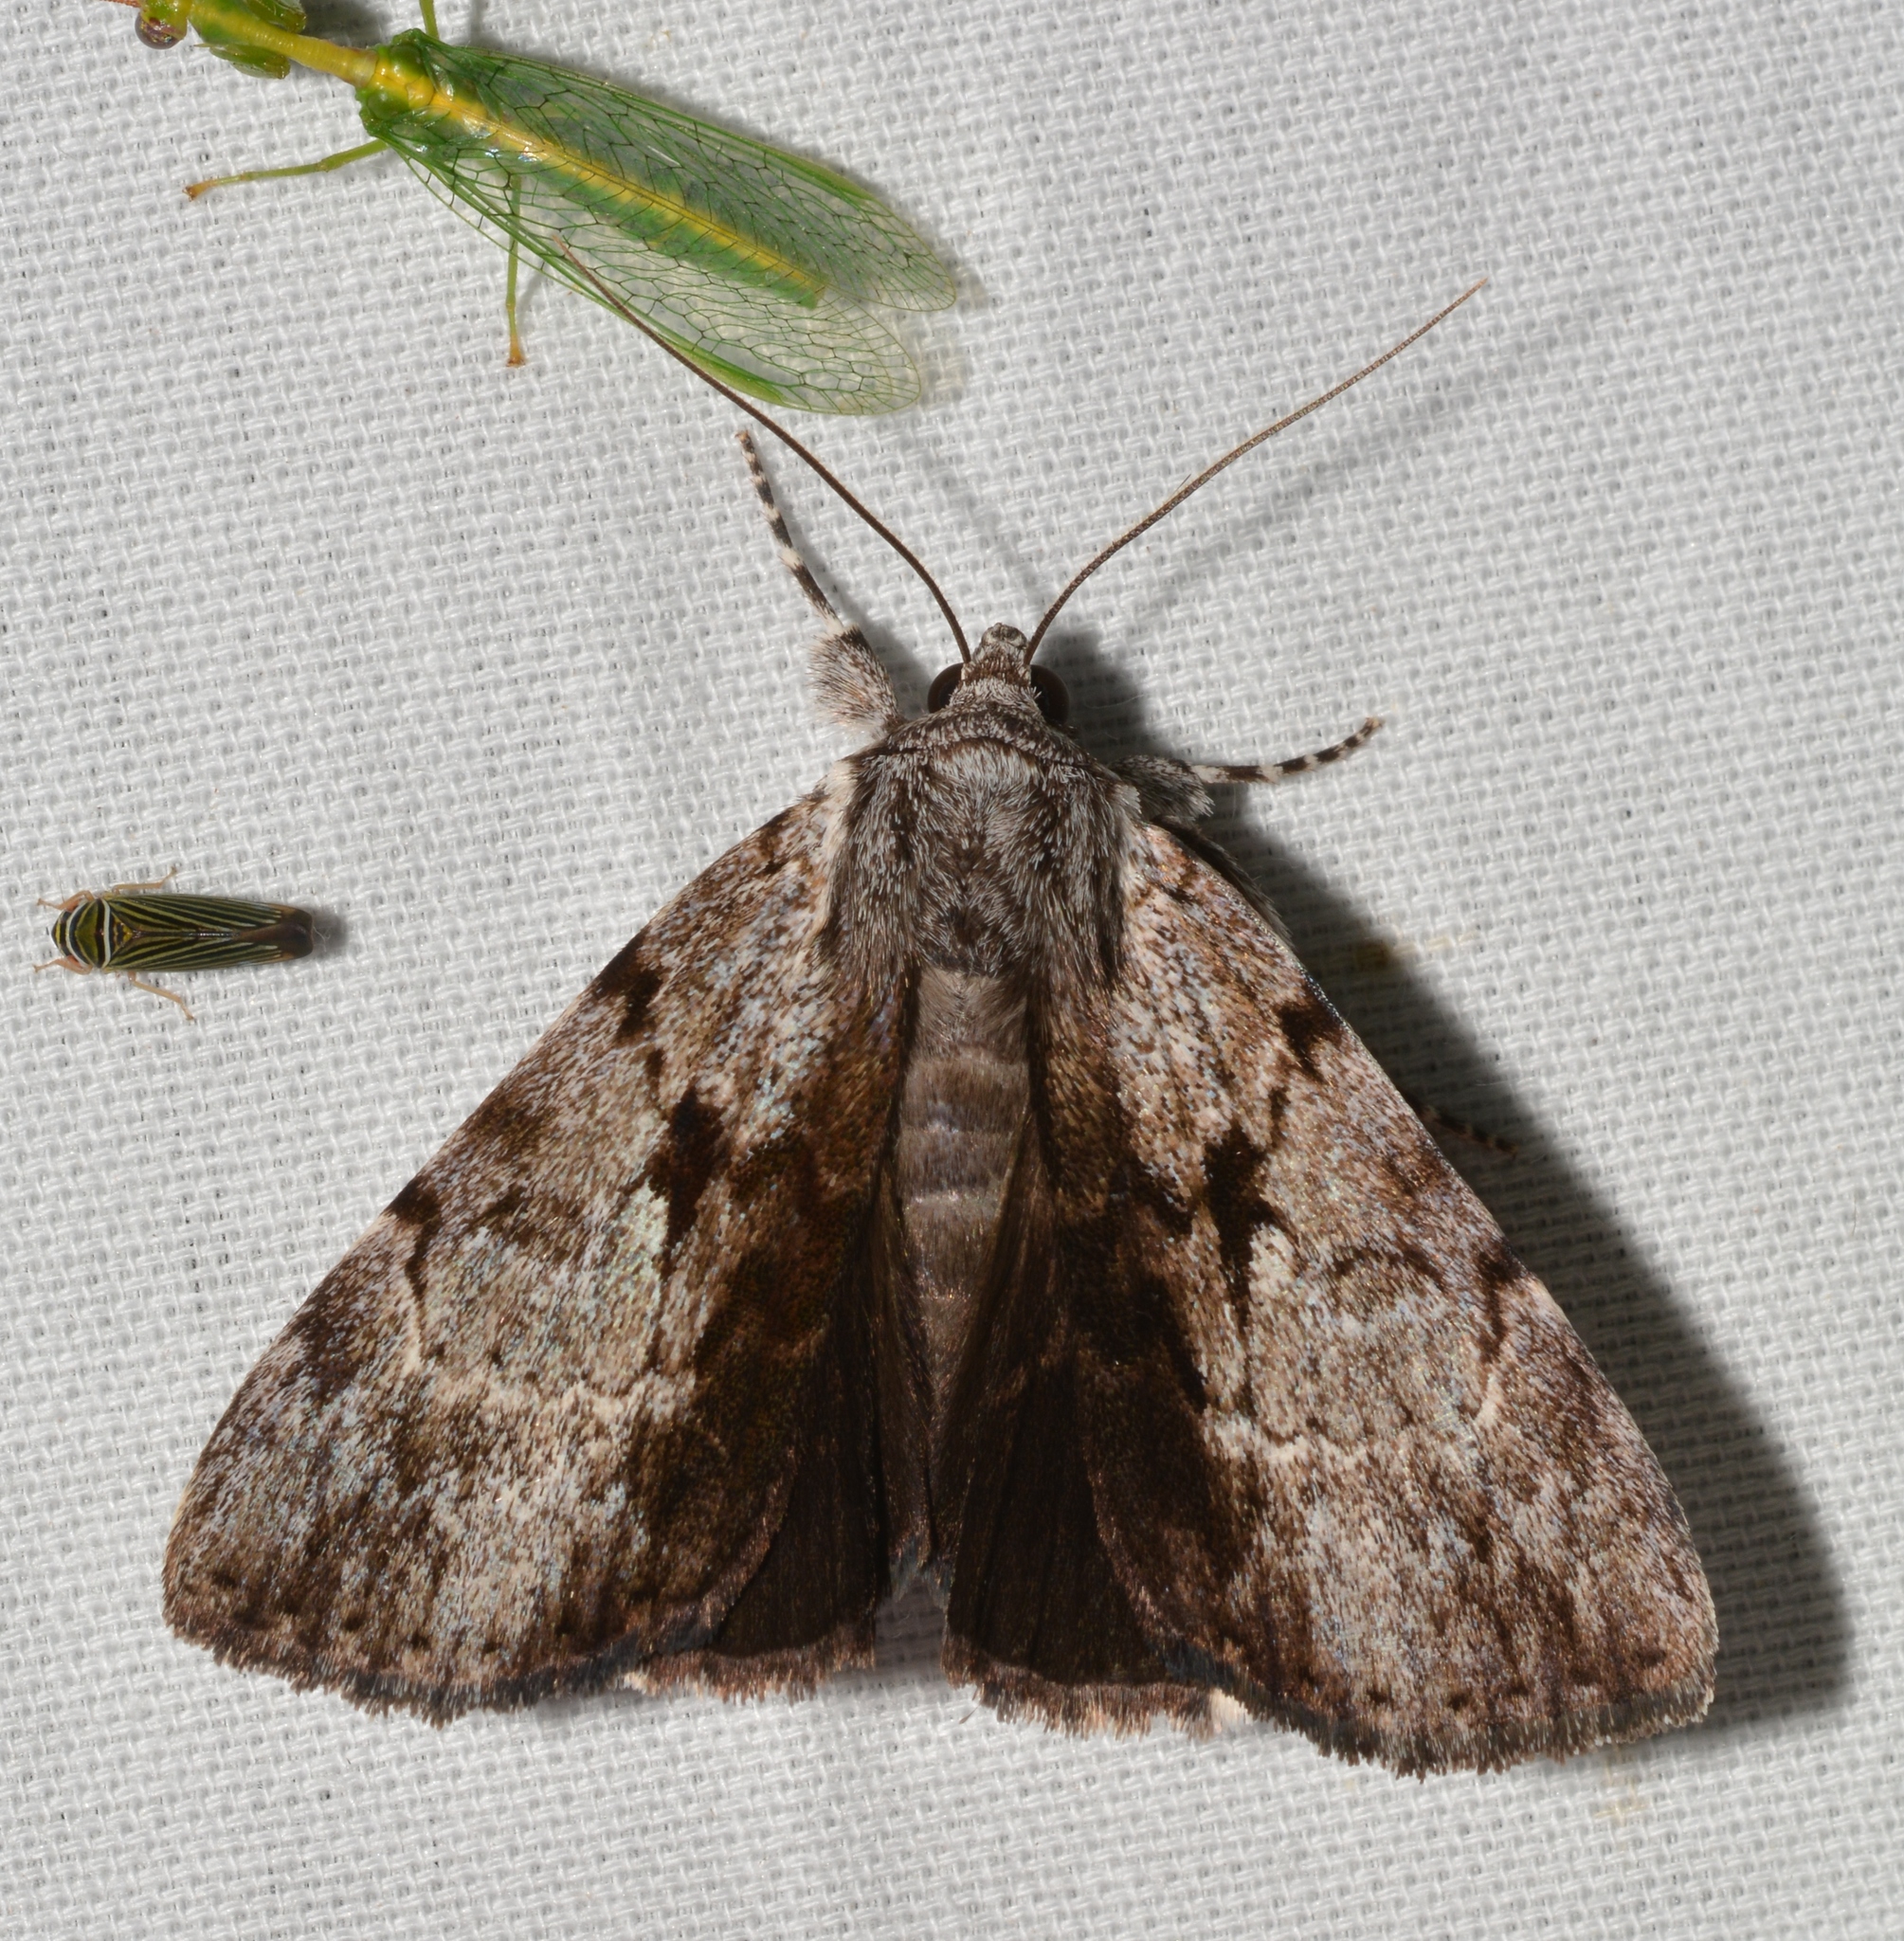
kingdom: Animalia
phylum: Arthropoda
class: Insecta
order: Lepidoptera
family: Erebidae
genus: Catocala
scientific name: Catocala andromedae
